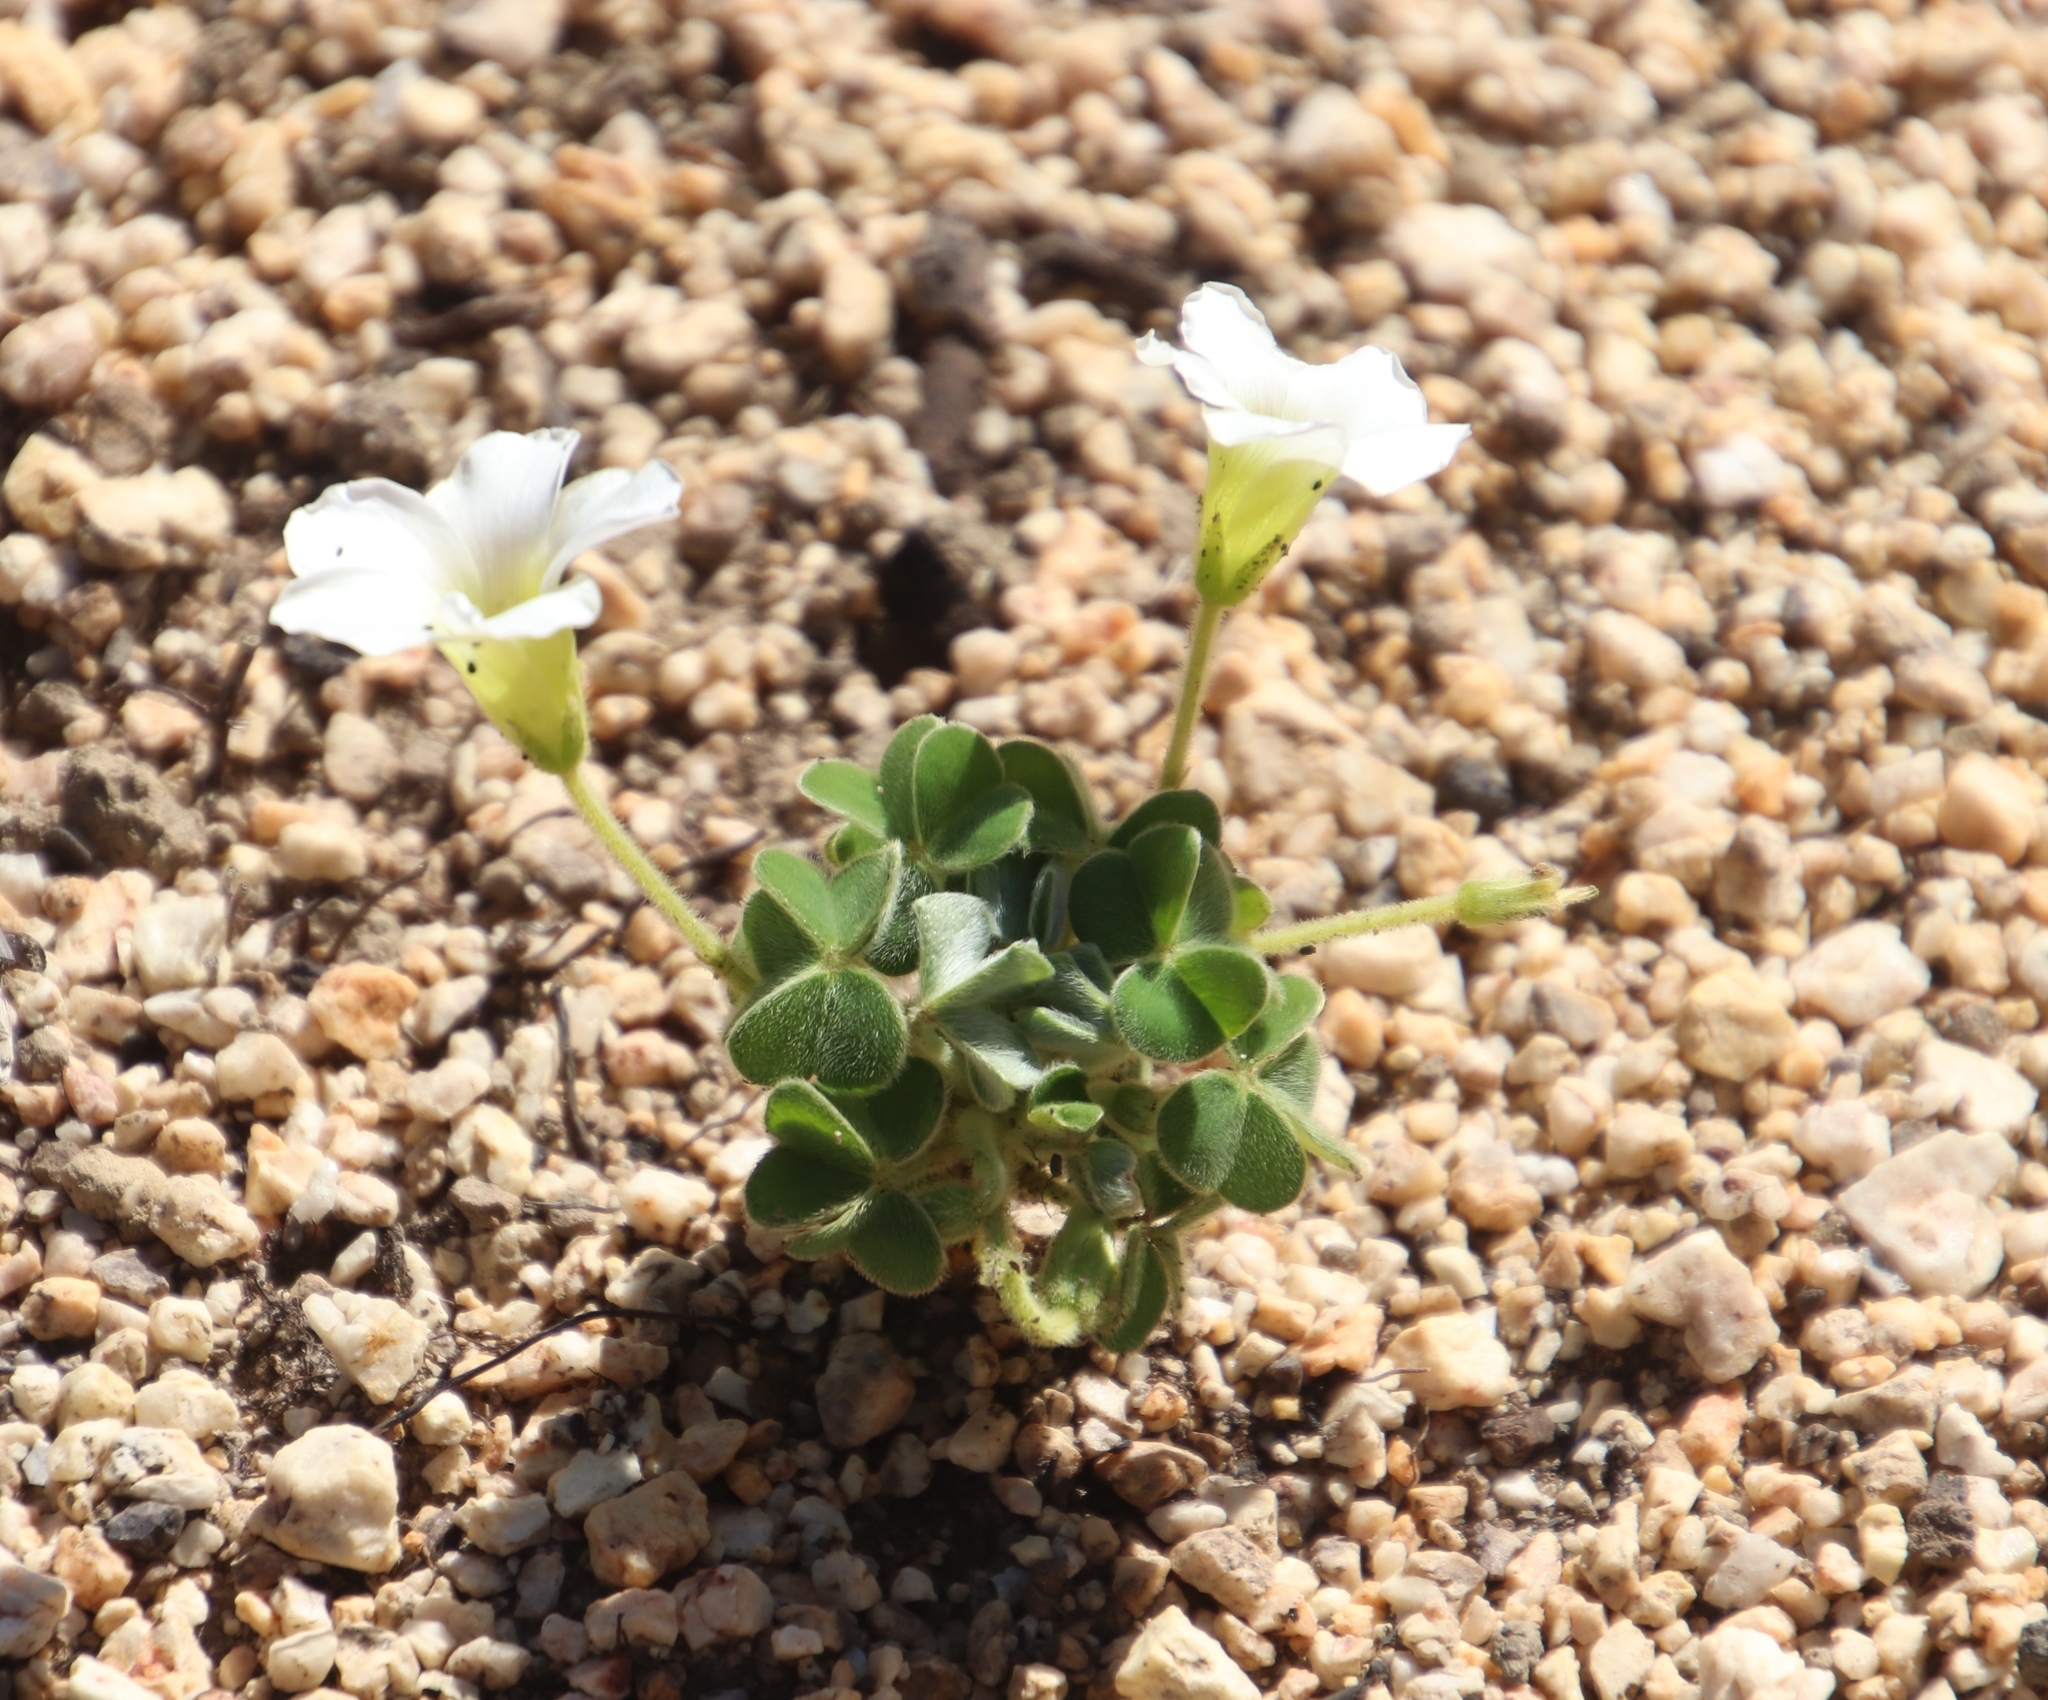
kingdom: Plantae
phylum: Tracheophyta
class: Magnoliopsida
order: Oxalidales
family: Oxalidaceae
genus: Oxalis
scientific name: Oxalis lanata
